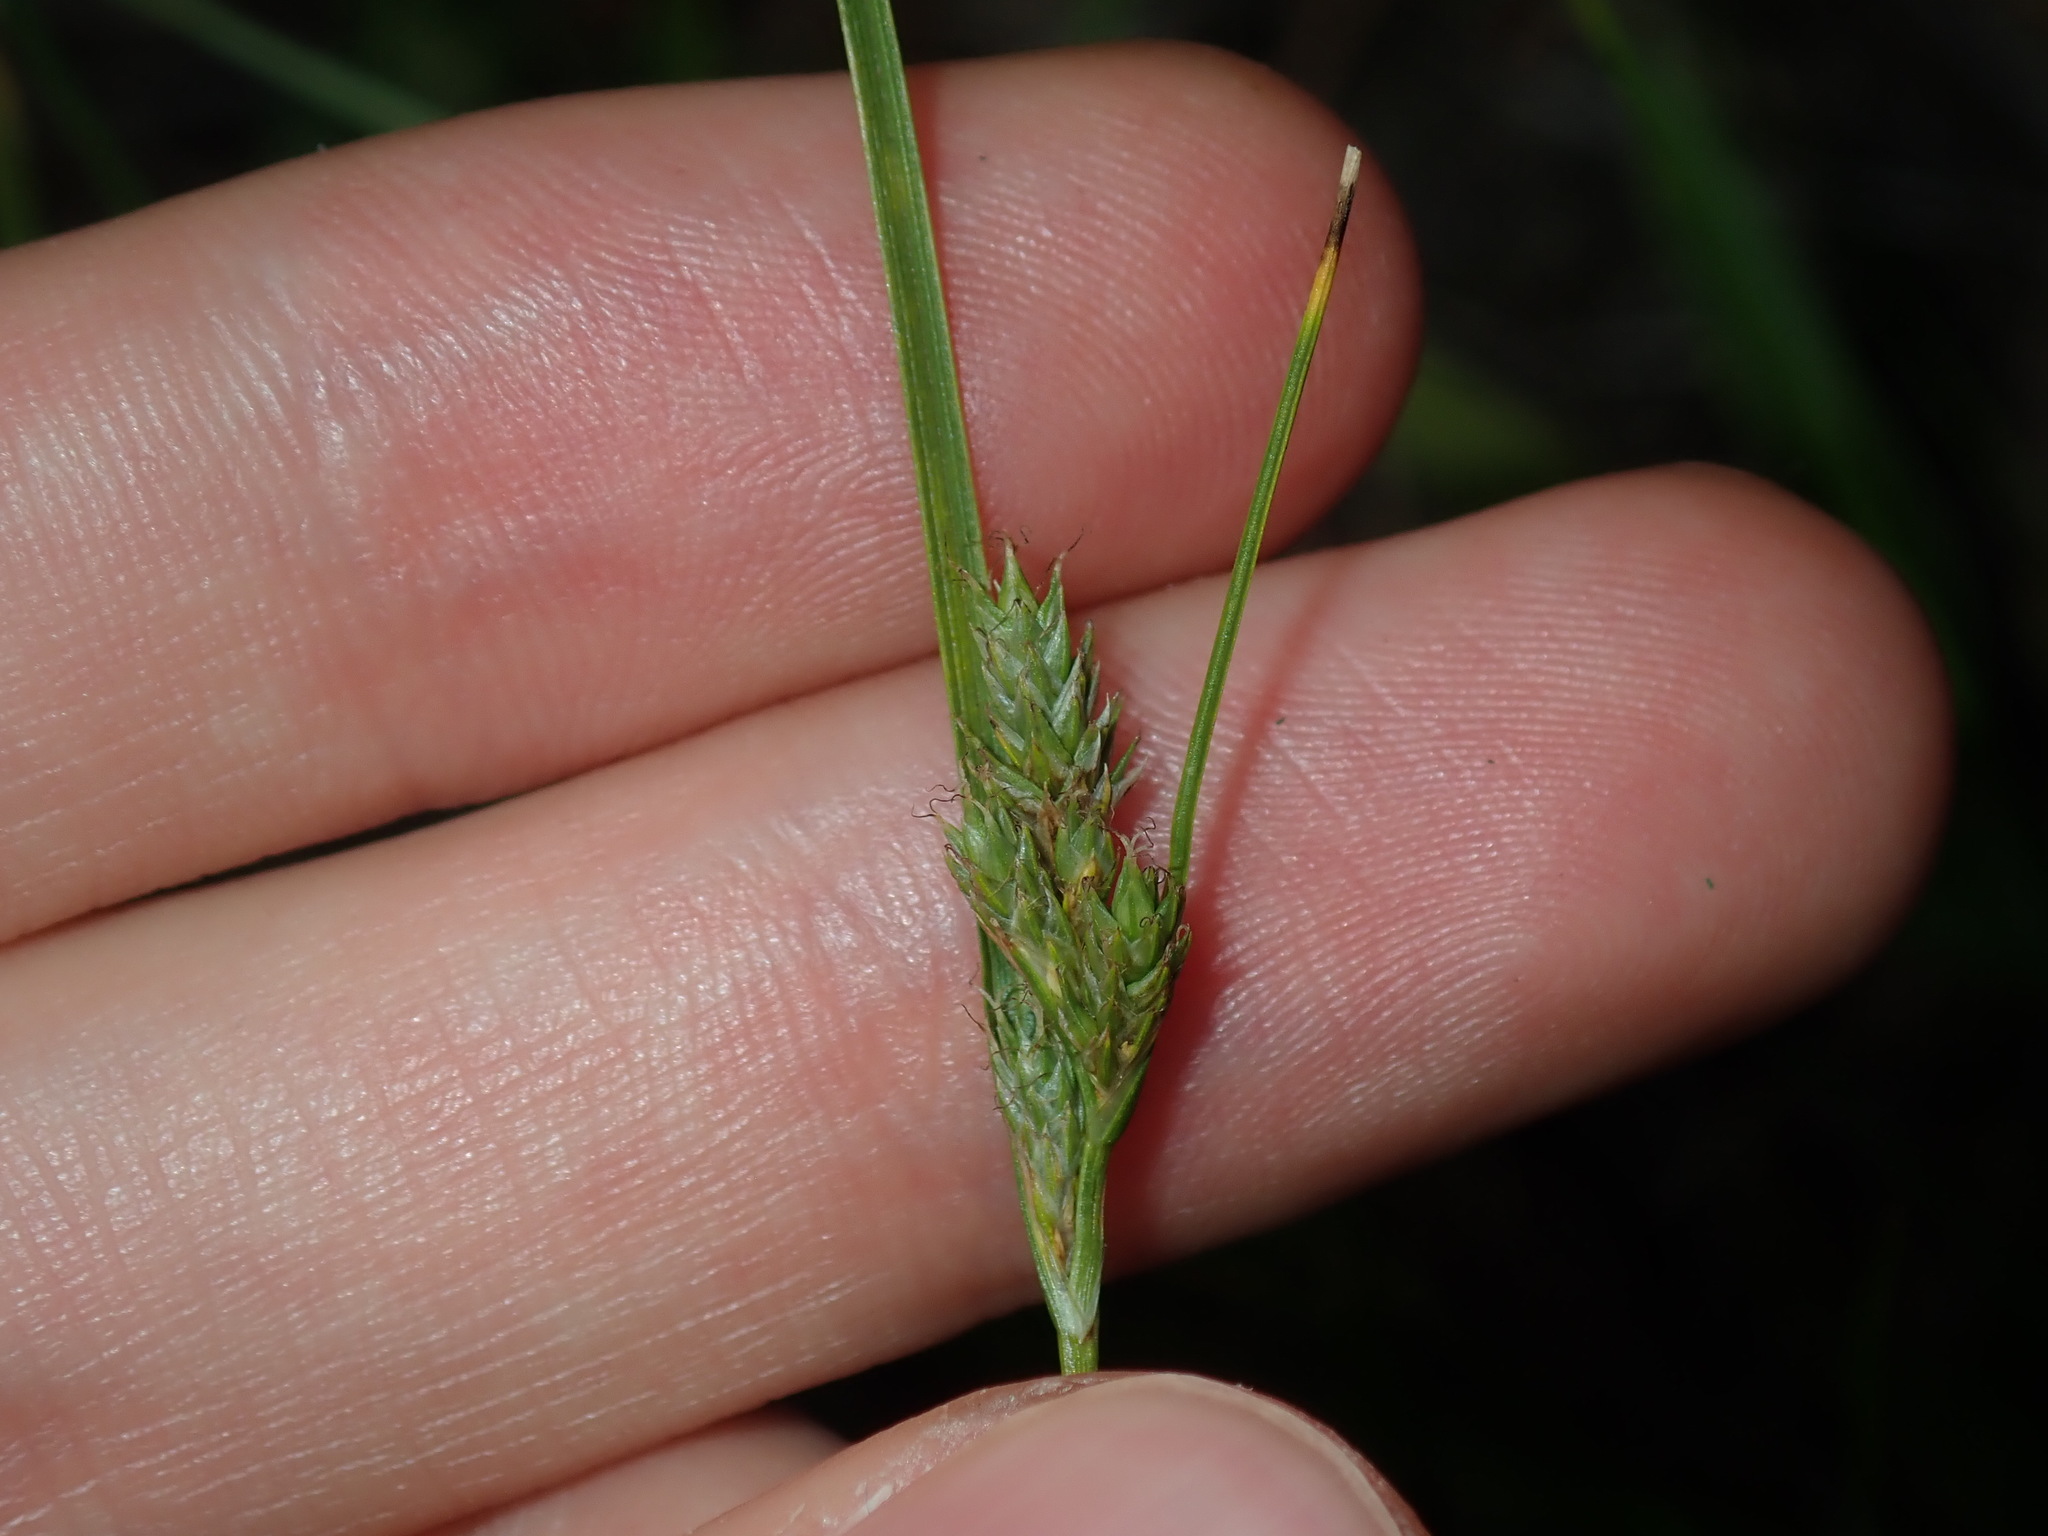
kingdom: Plantae
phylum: Tracheophyta
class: Liliopsida
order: Poales
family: Cyperaceae
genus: Carex
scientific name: Carex inversa
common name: Knob sedge
